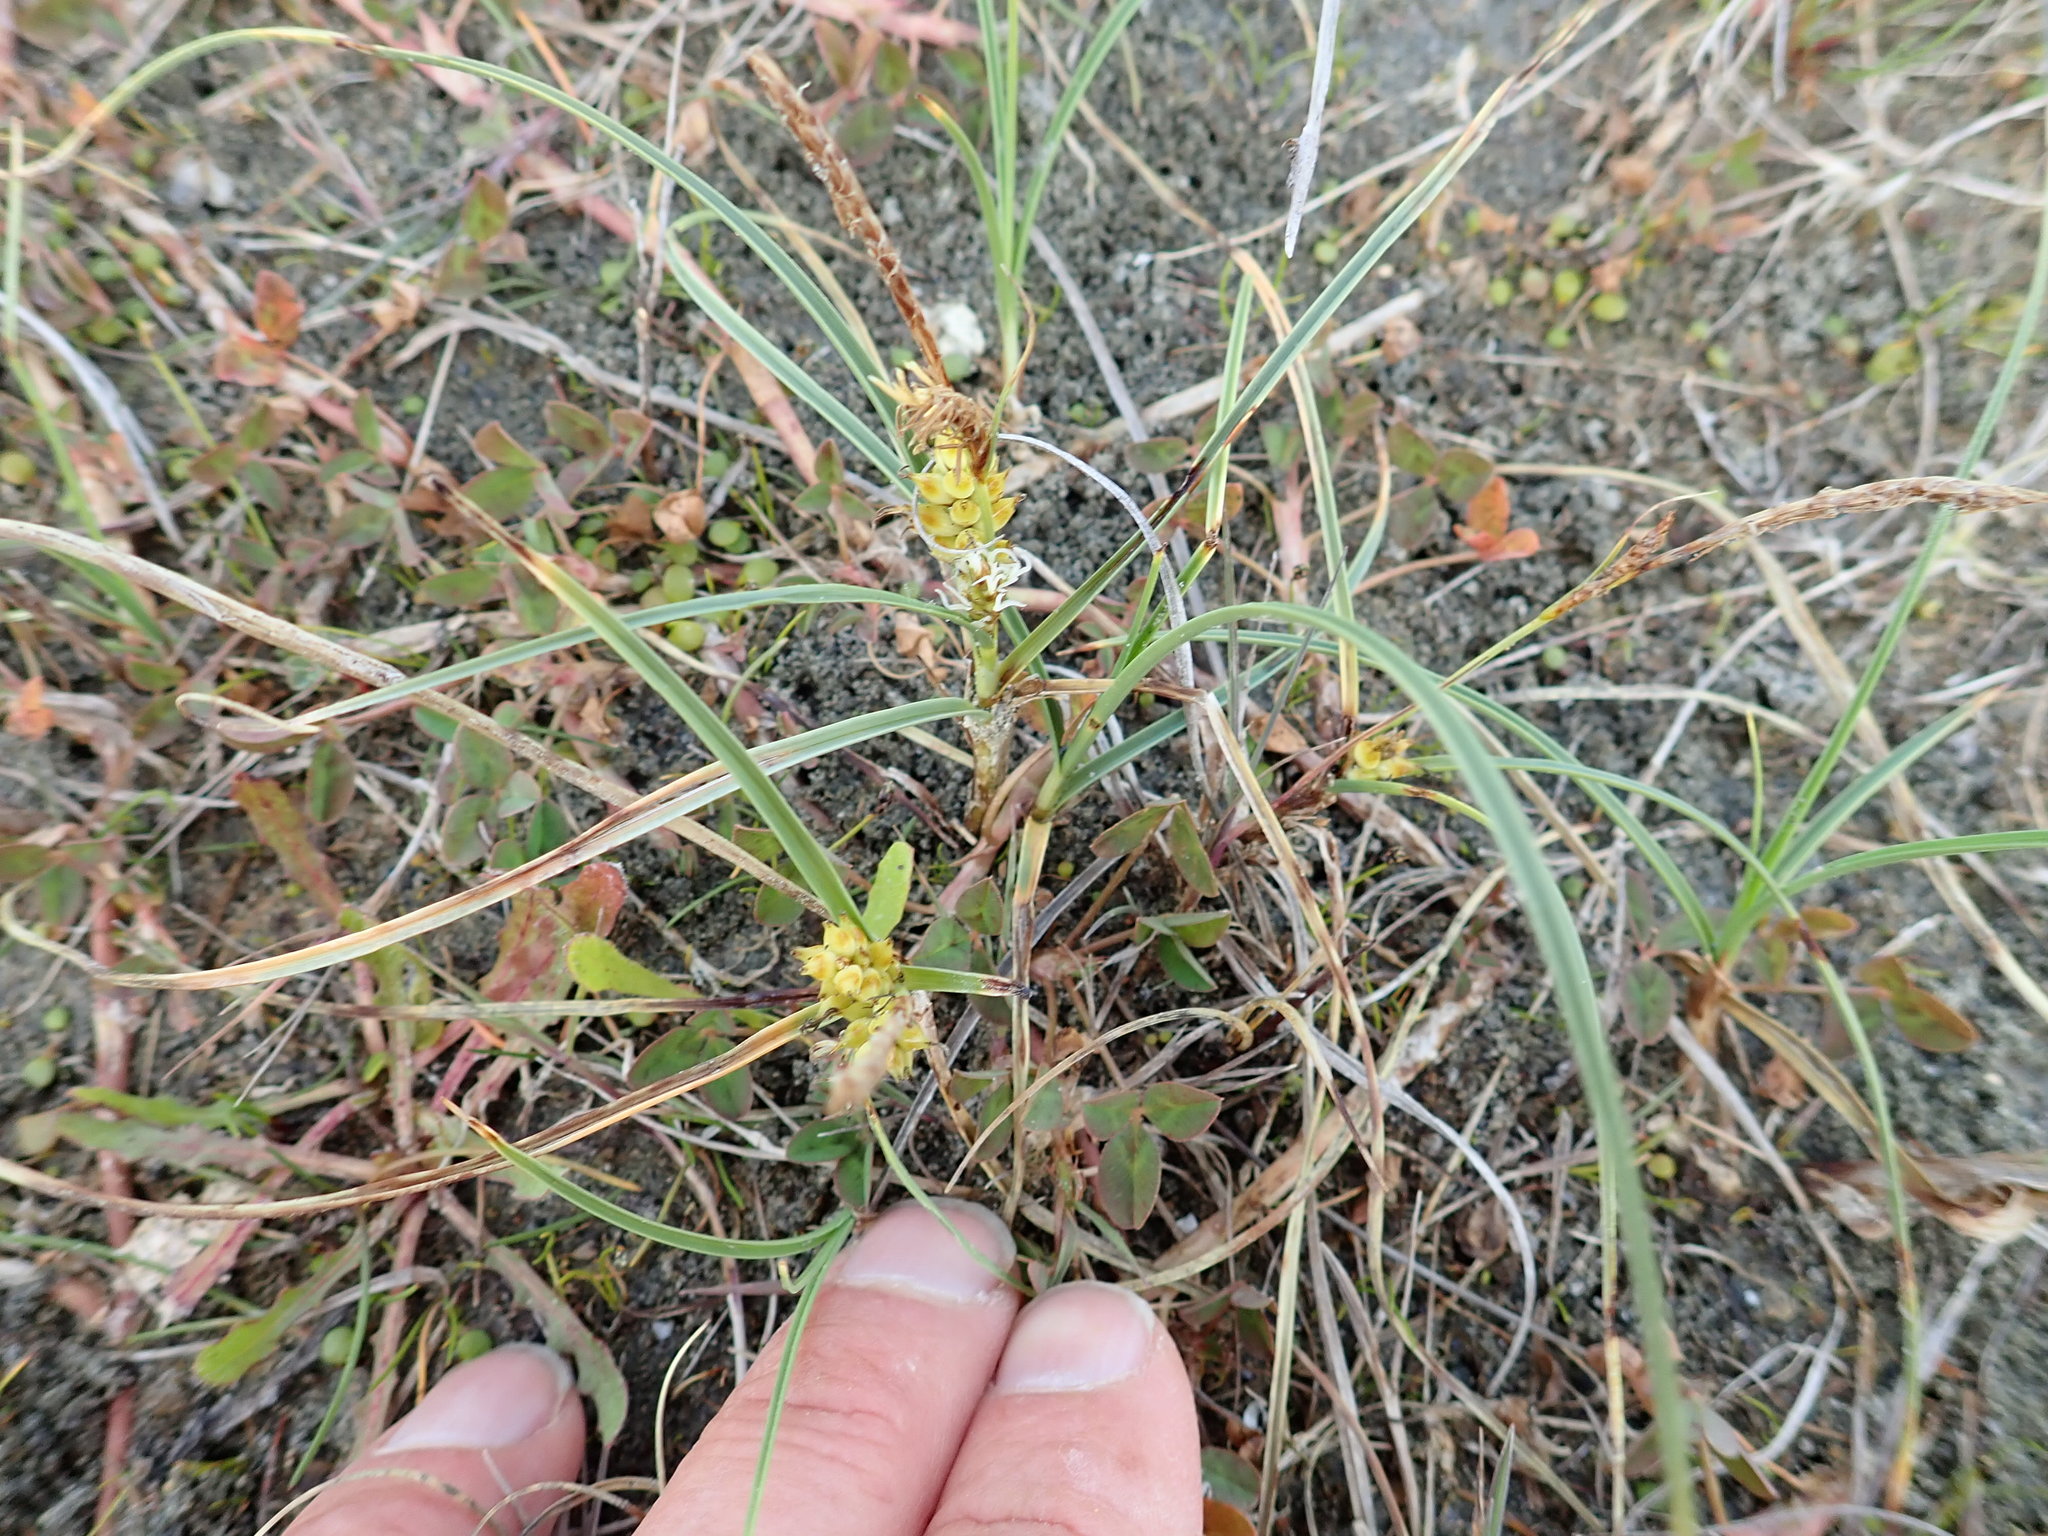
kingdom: Plantae
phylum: Tracheophyta
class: Liliopsida
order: Poales
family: Cyperaceae
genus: Carex
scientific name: Carex pumila
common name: Dwarf sedge
